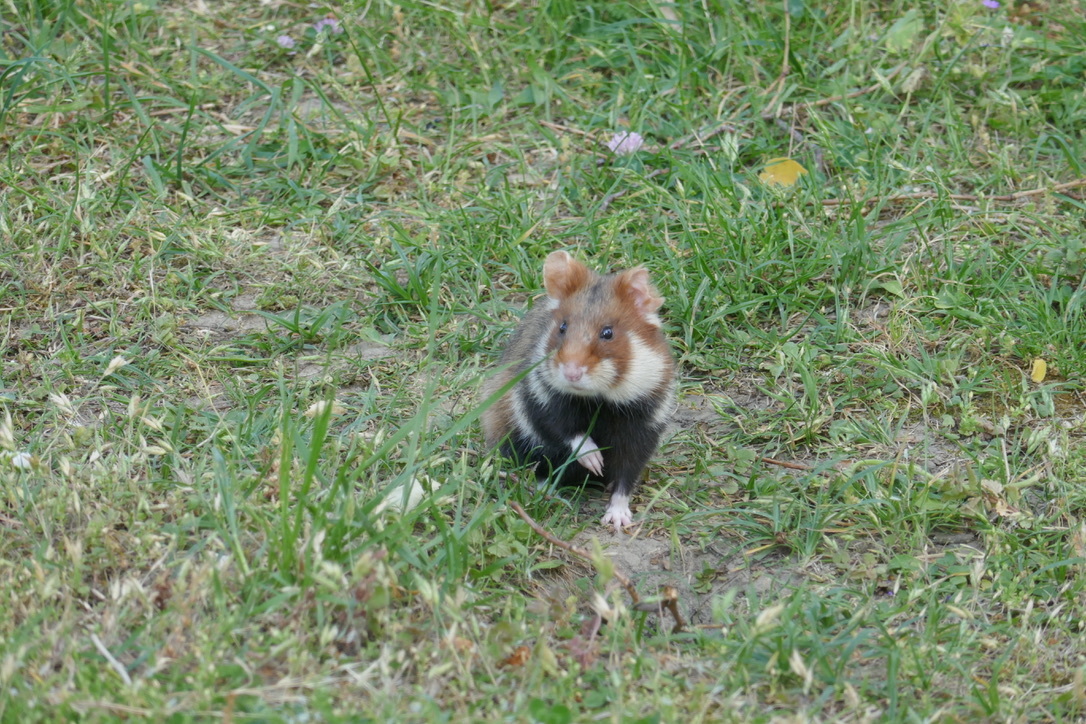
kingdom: Animalia
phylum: Chordata
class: Mammalia
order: Rodentia
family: Cricetidae
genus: Cricetus
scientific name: Cricetus cricetus
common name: Common hamster
